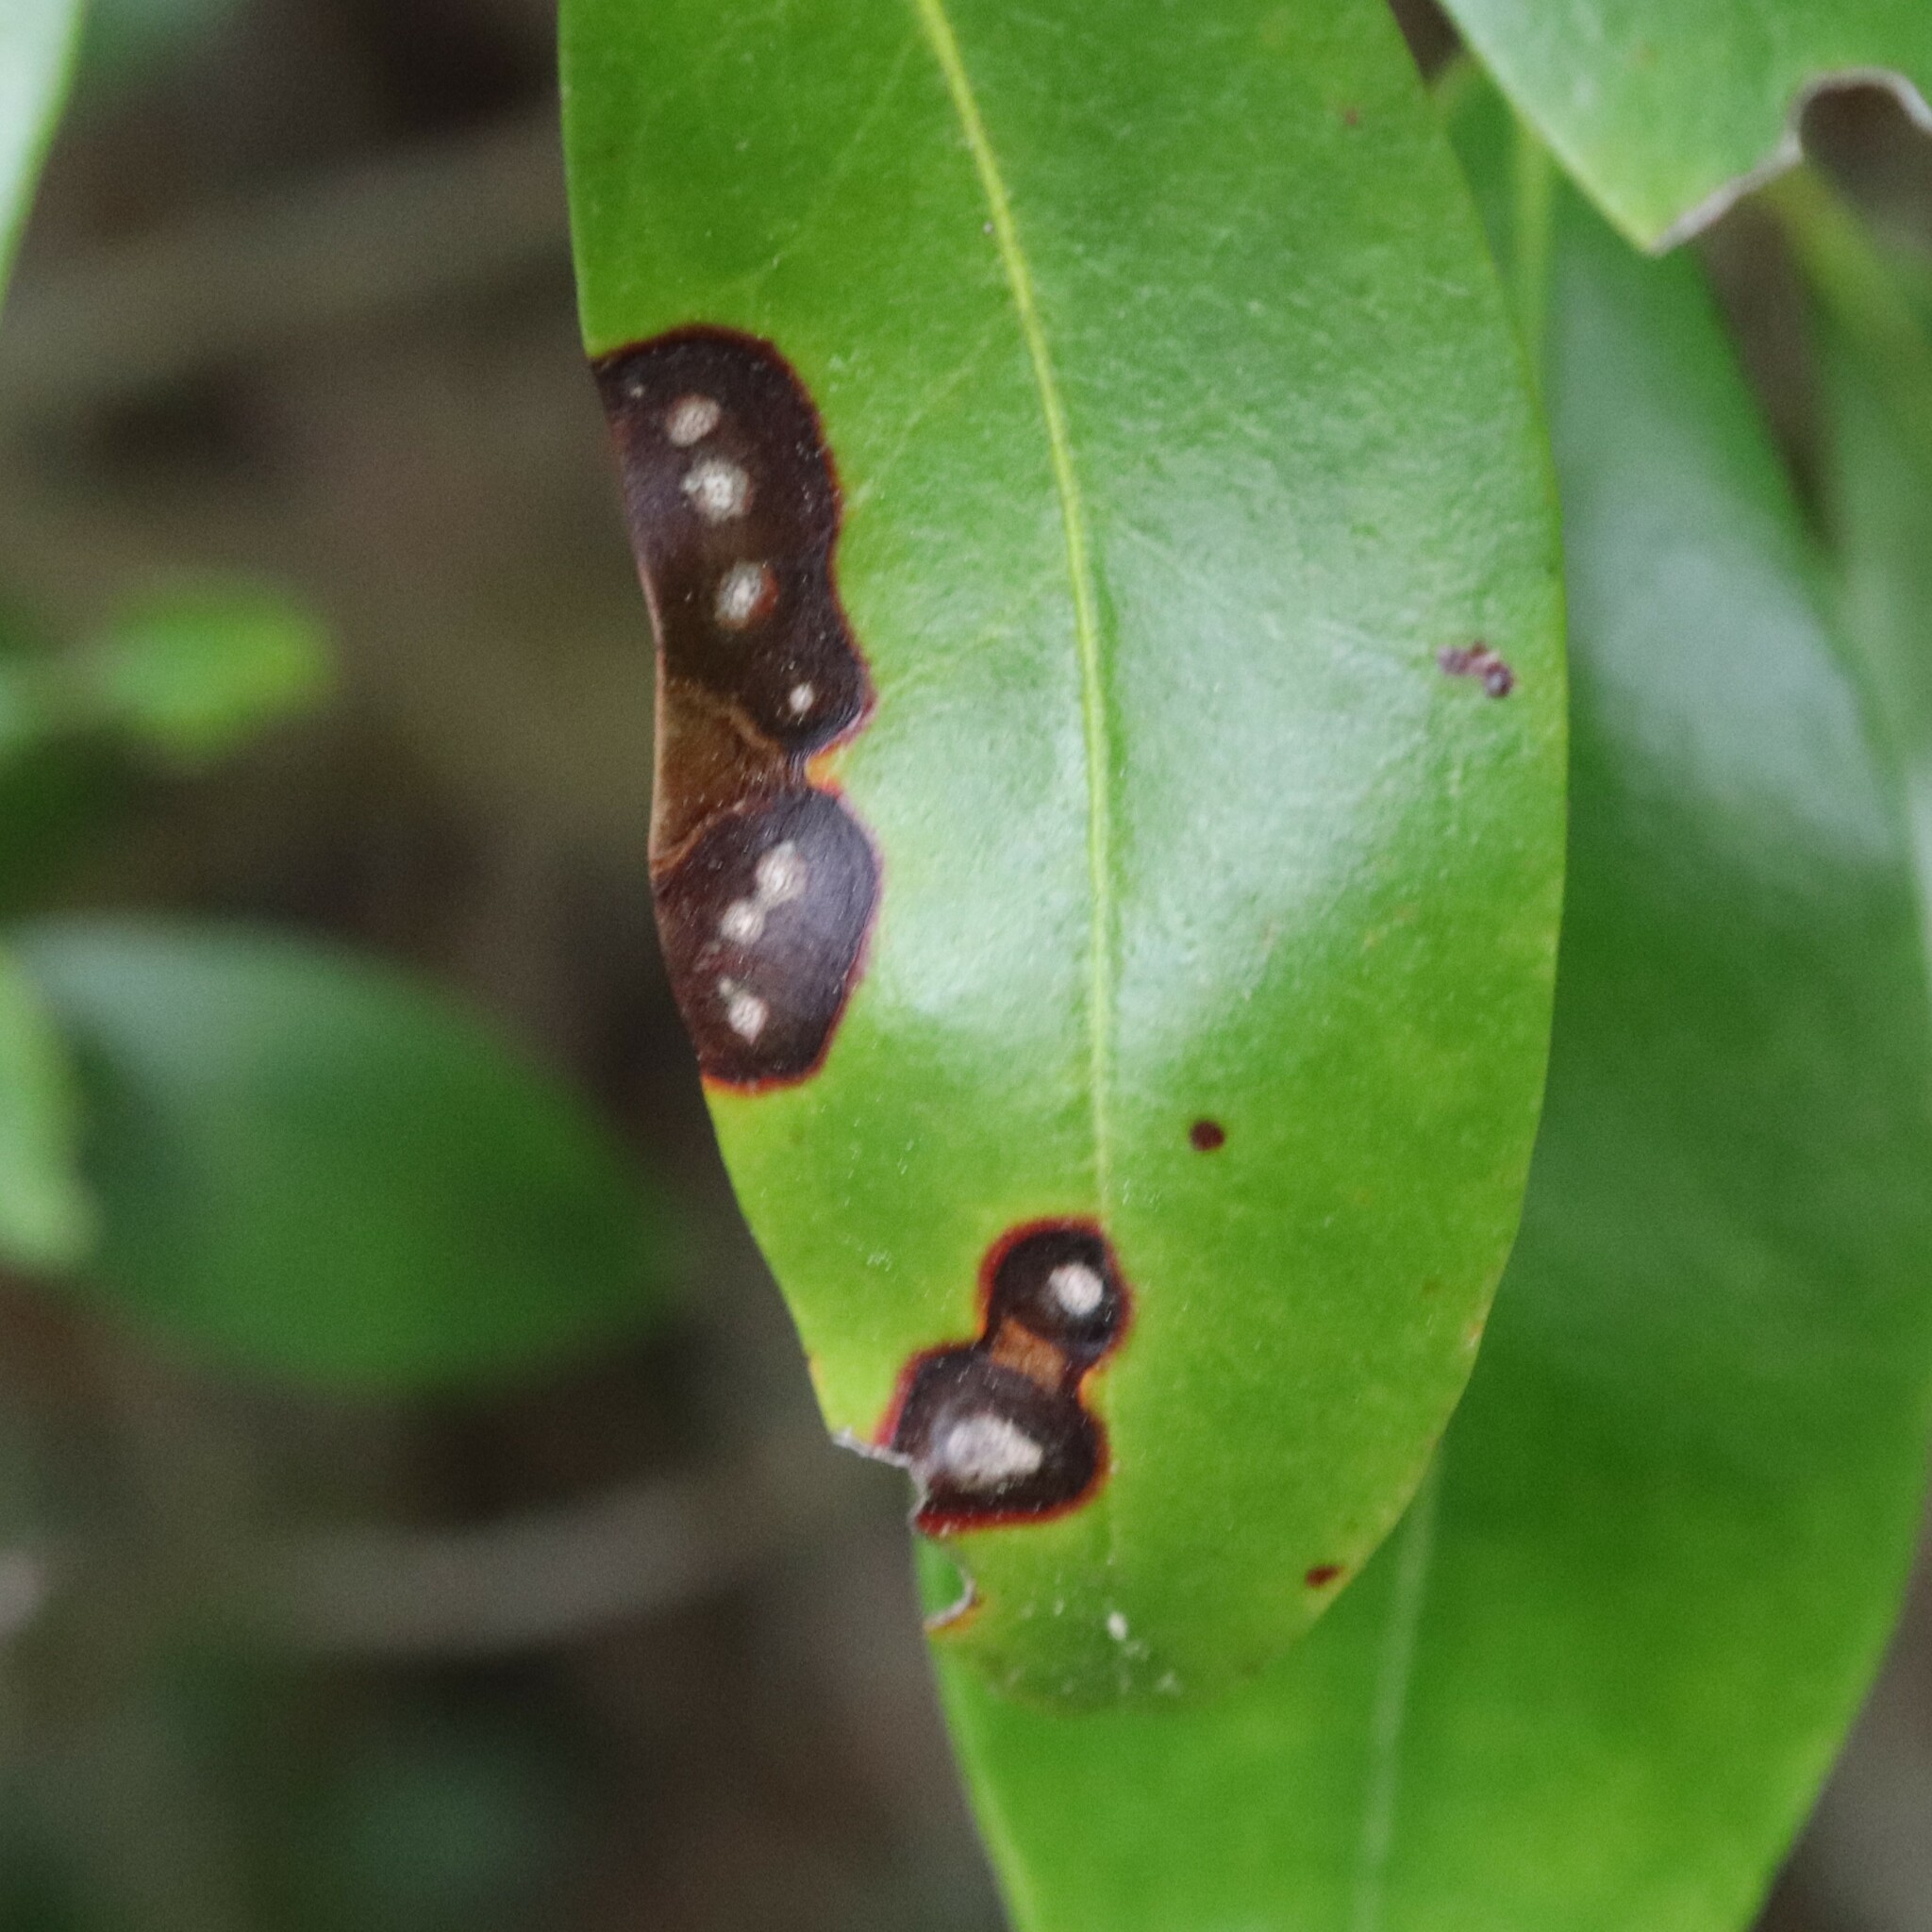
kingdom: Fungi
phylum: Ascomycota
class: Dothideomycetes
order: Mycosphaerellales
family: Mycosphaerellaceae
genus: Mycosphaerella
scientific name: Mycosphaerella colorata
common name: Mountain laurel leaf spot
